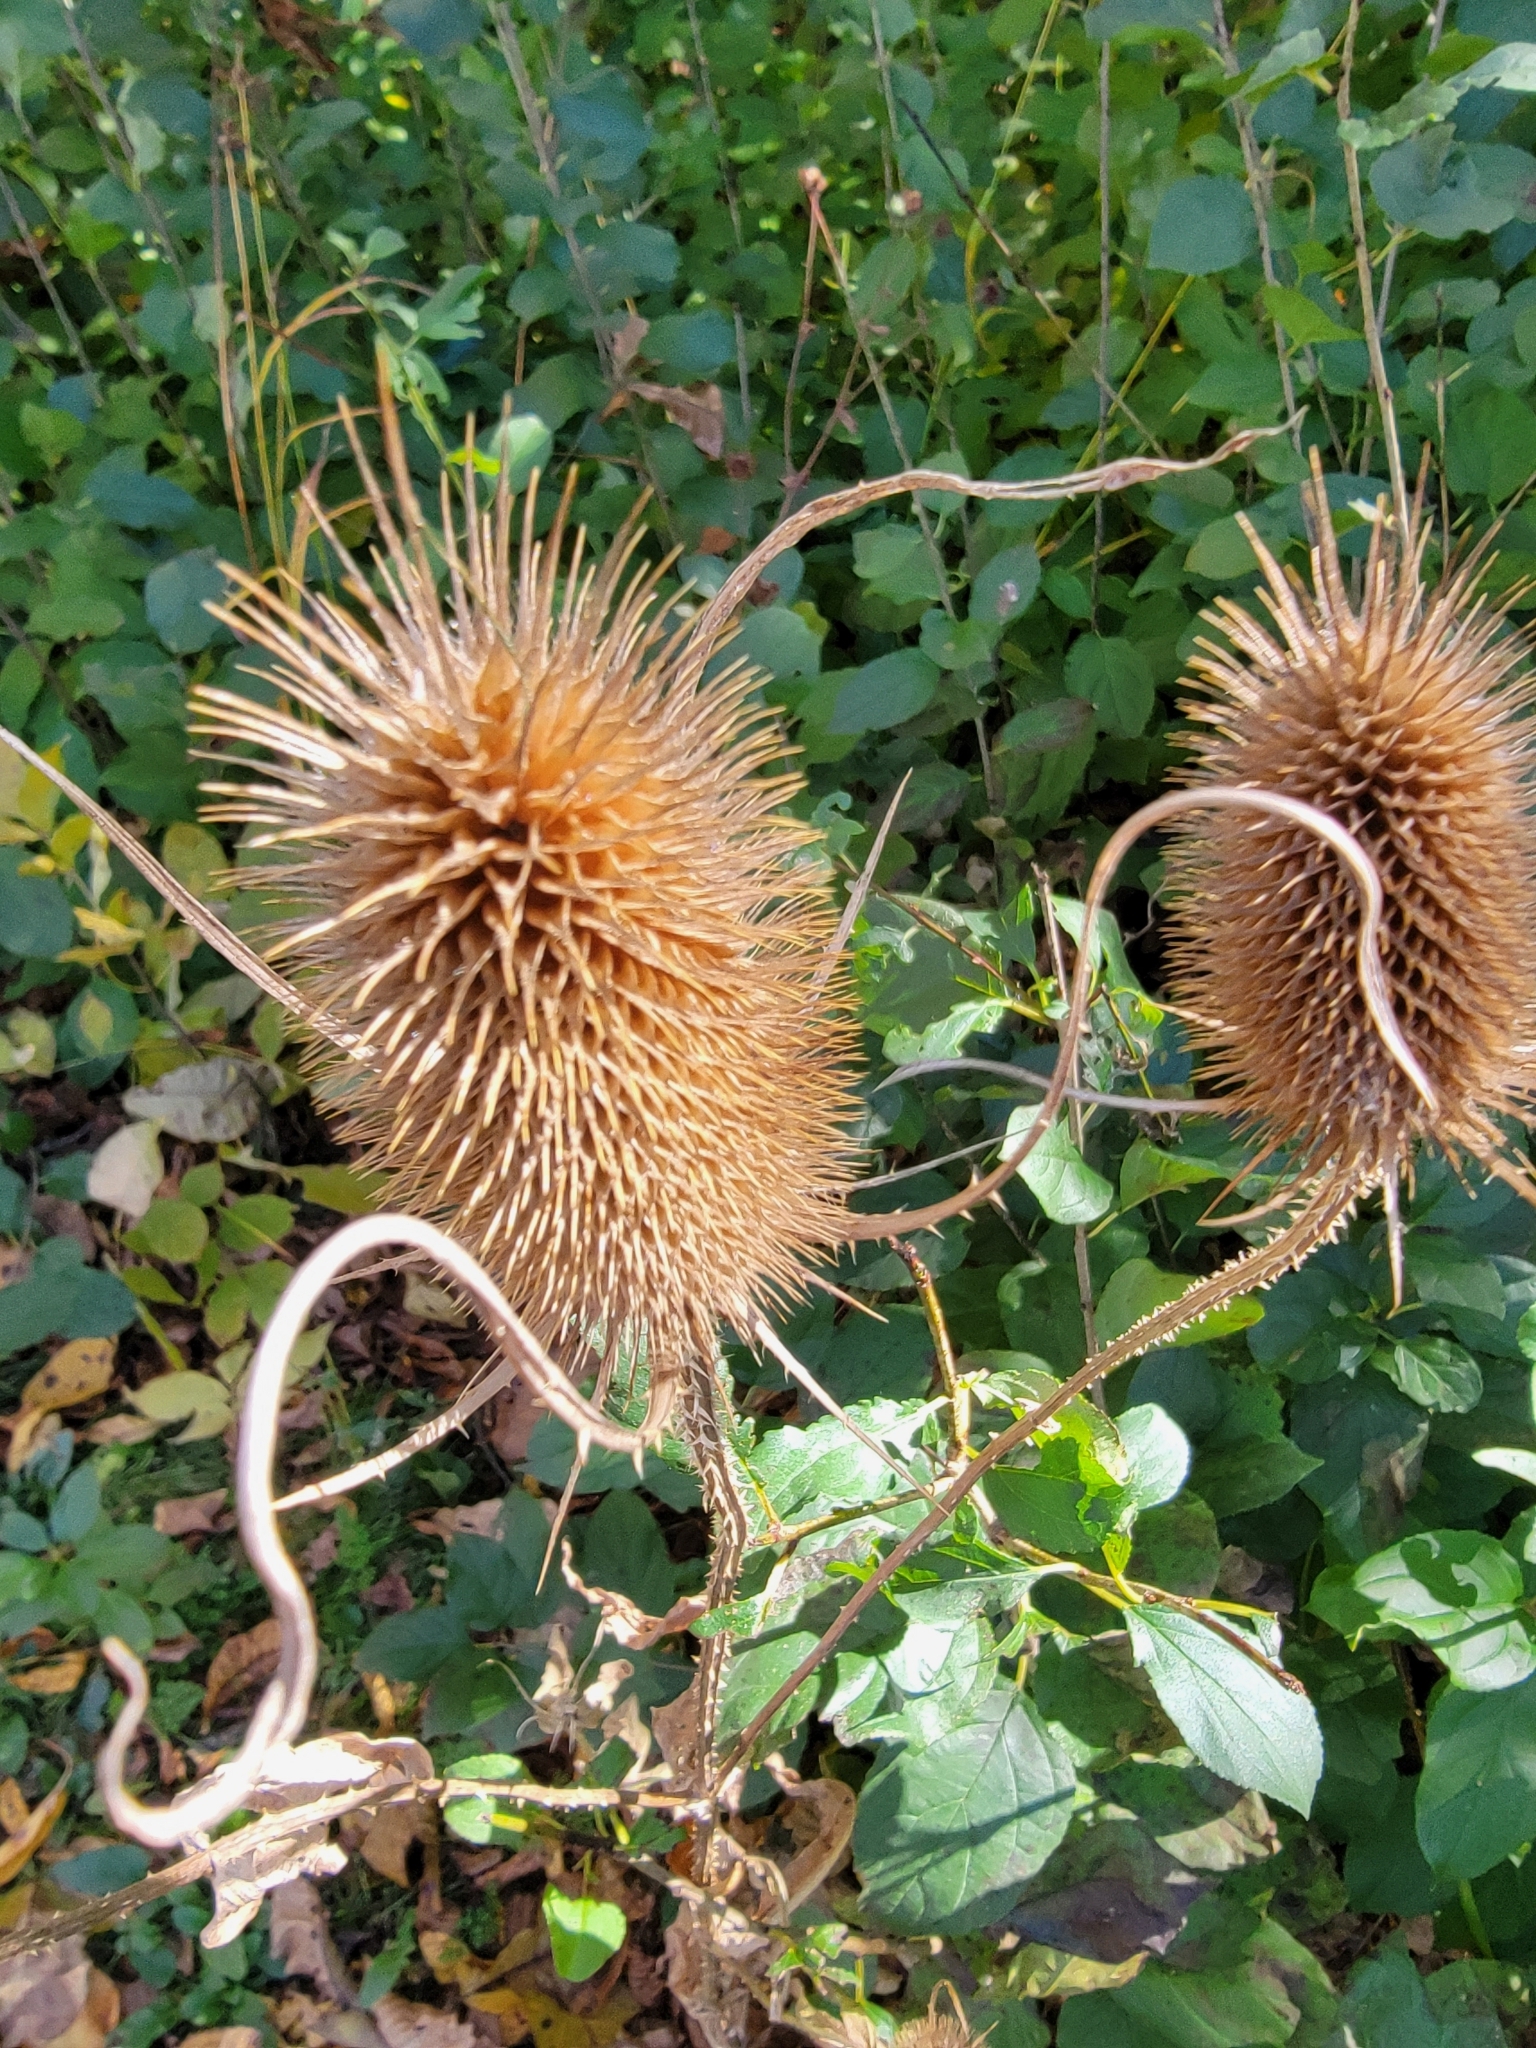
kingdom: Plantae
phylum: Tracheophyta
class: Magnoliopsida
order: Dipsacales
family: Caprifoliaceae
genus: Dipsacus
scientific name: Dipsacus fullonum
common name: Teasel
